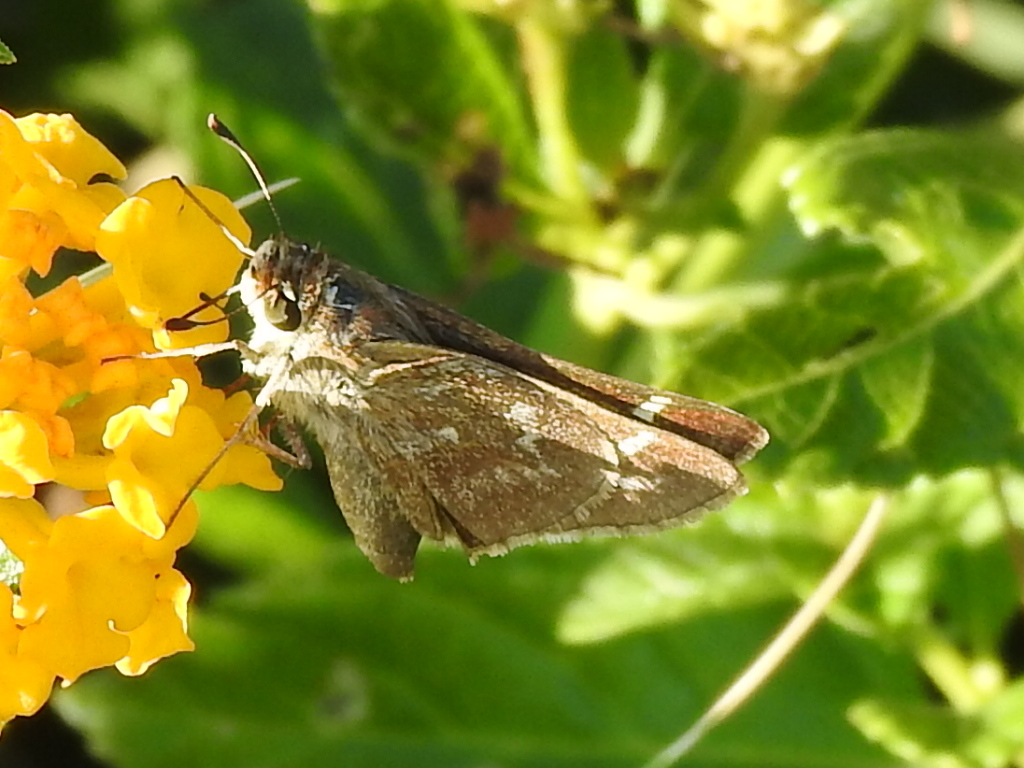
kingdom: Animalia
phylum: Arthropoda
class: Insecta
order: Lepidoptera
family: Hesperiidae
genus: Atalopedes
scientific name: Atalopedes
